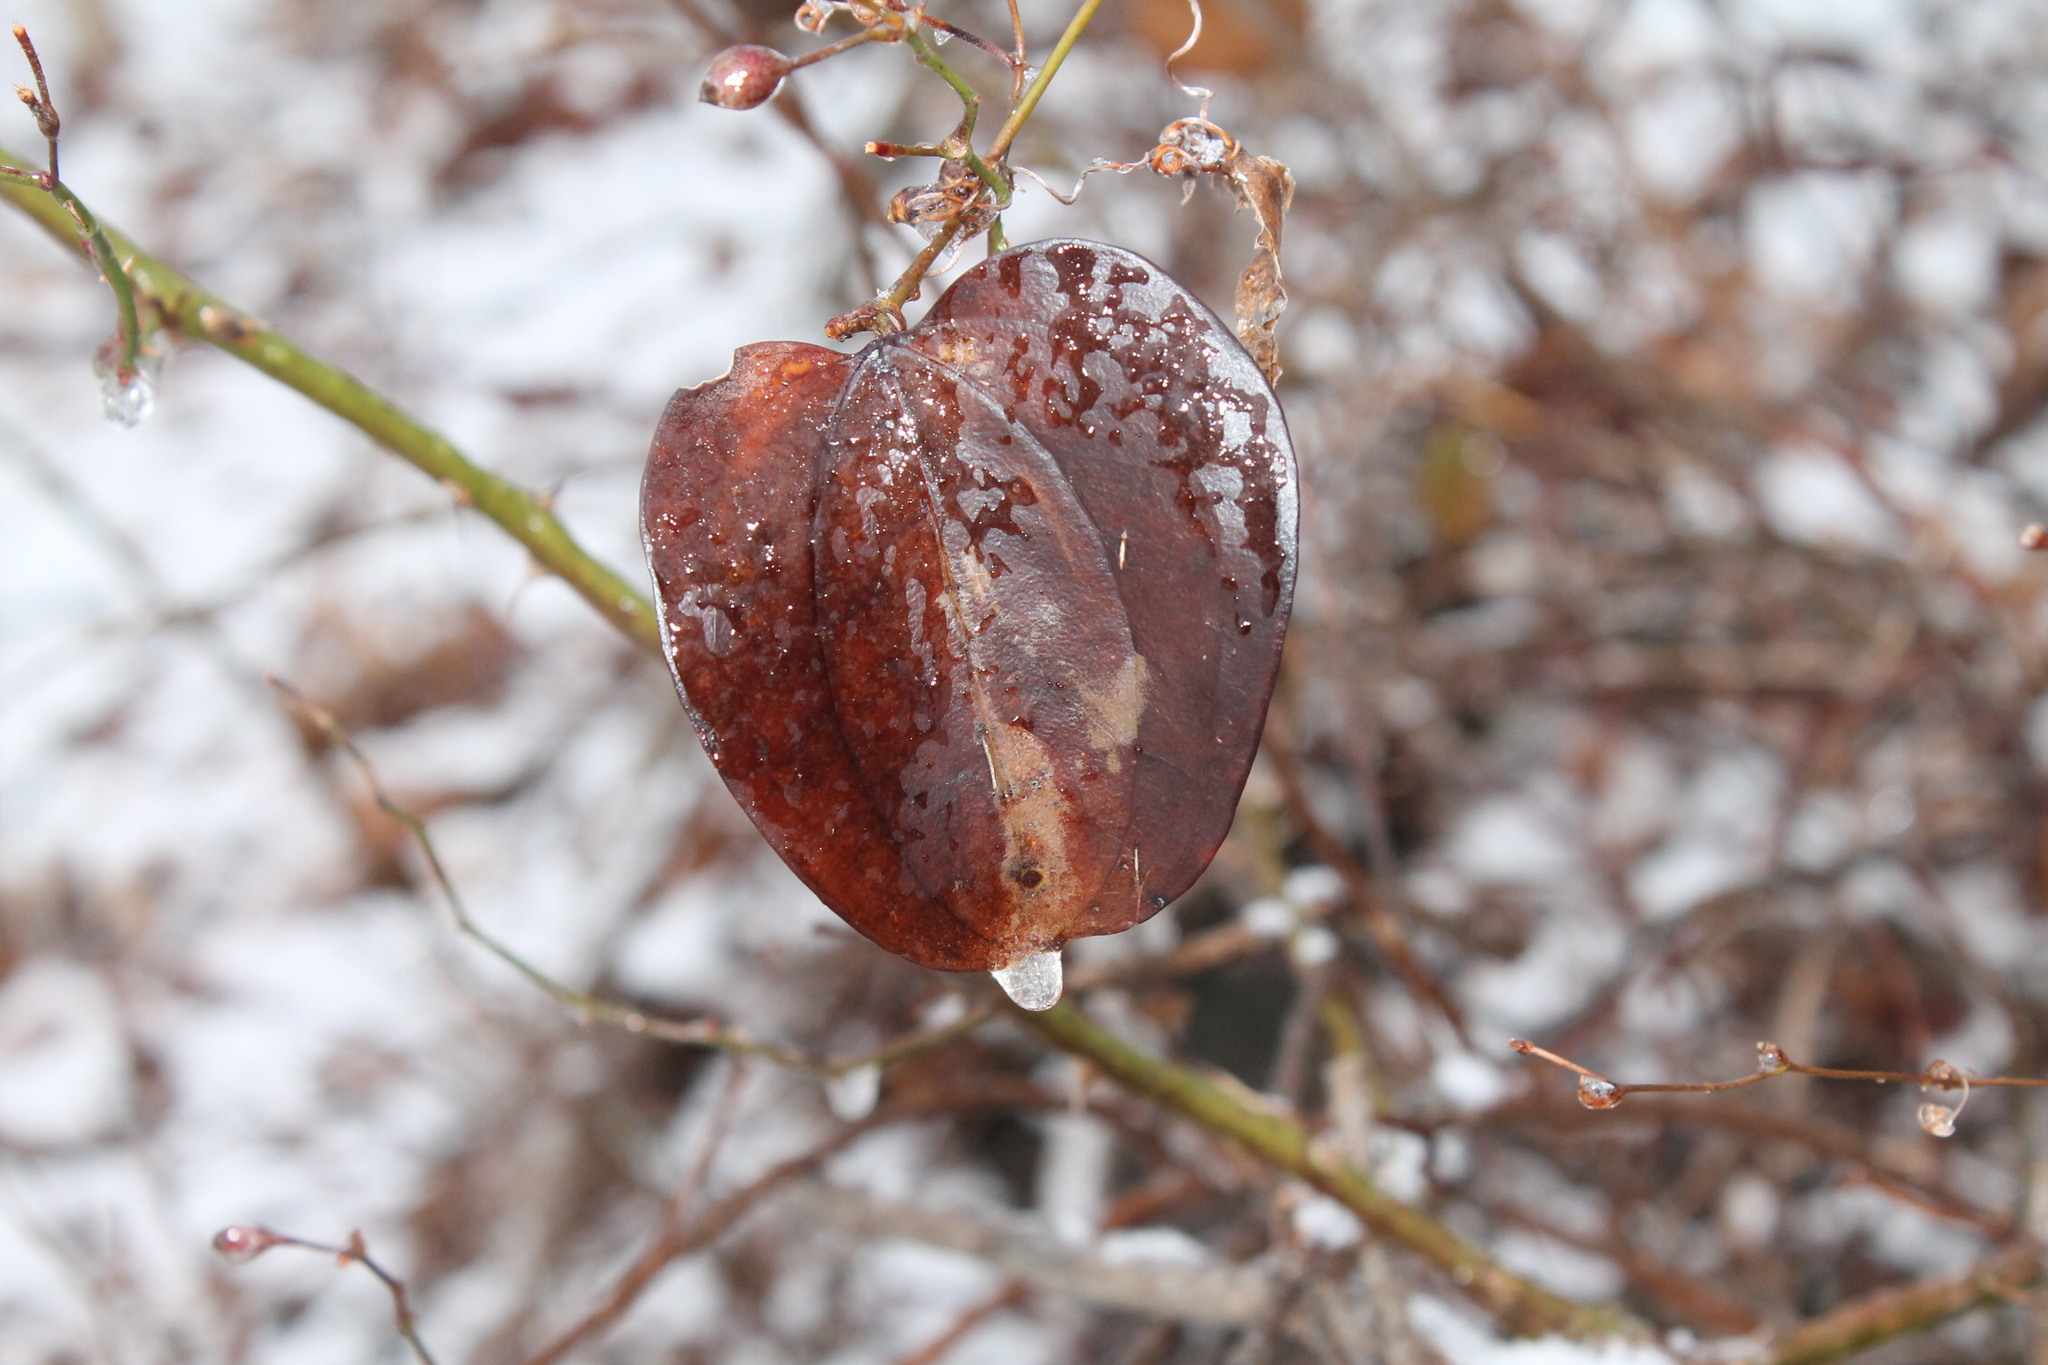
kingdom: Plantae
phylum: Tracheophyta
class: Liliopsida
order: Liliales
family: Smilacaceae
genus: Smilax
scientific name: Smilax rotundifolia
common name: Bullbriar
